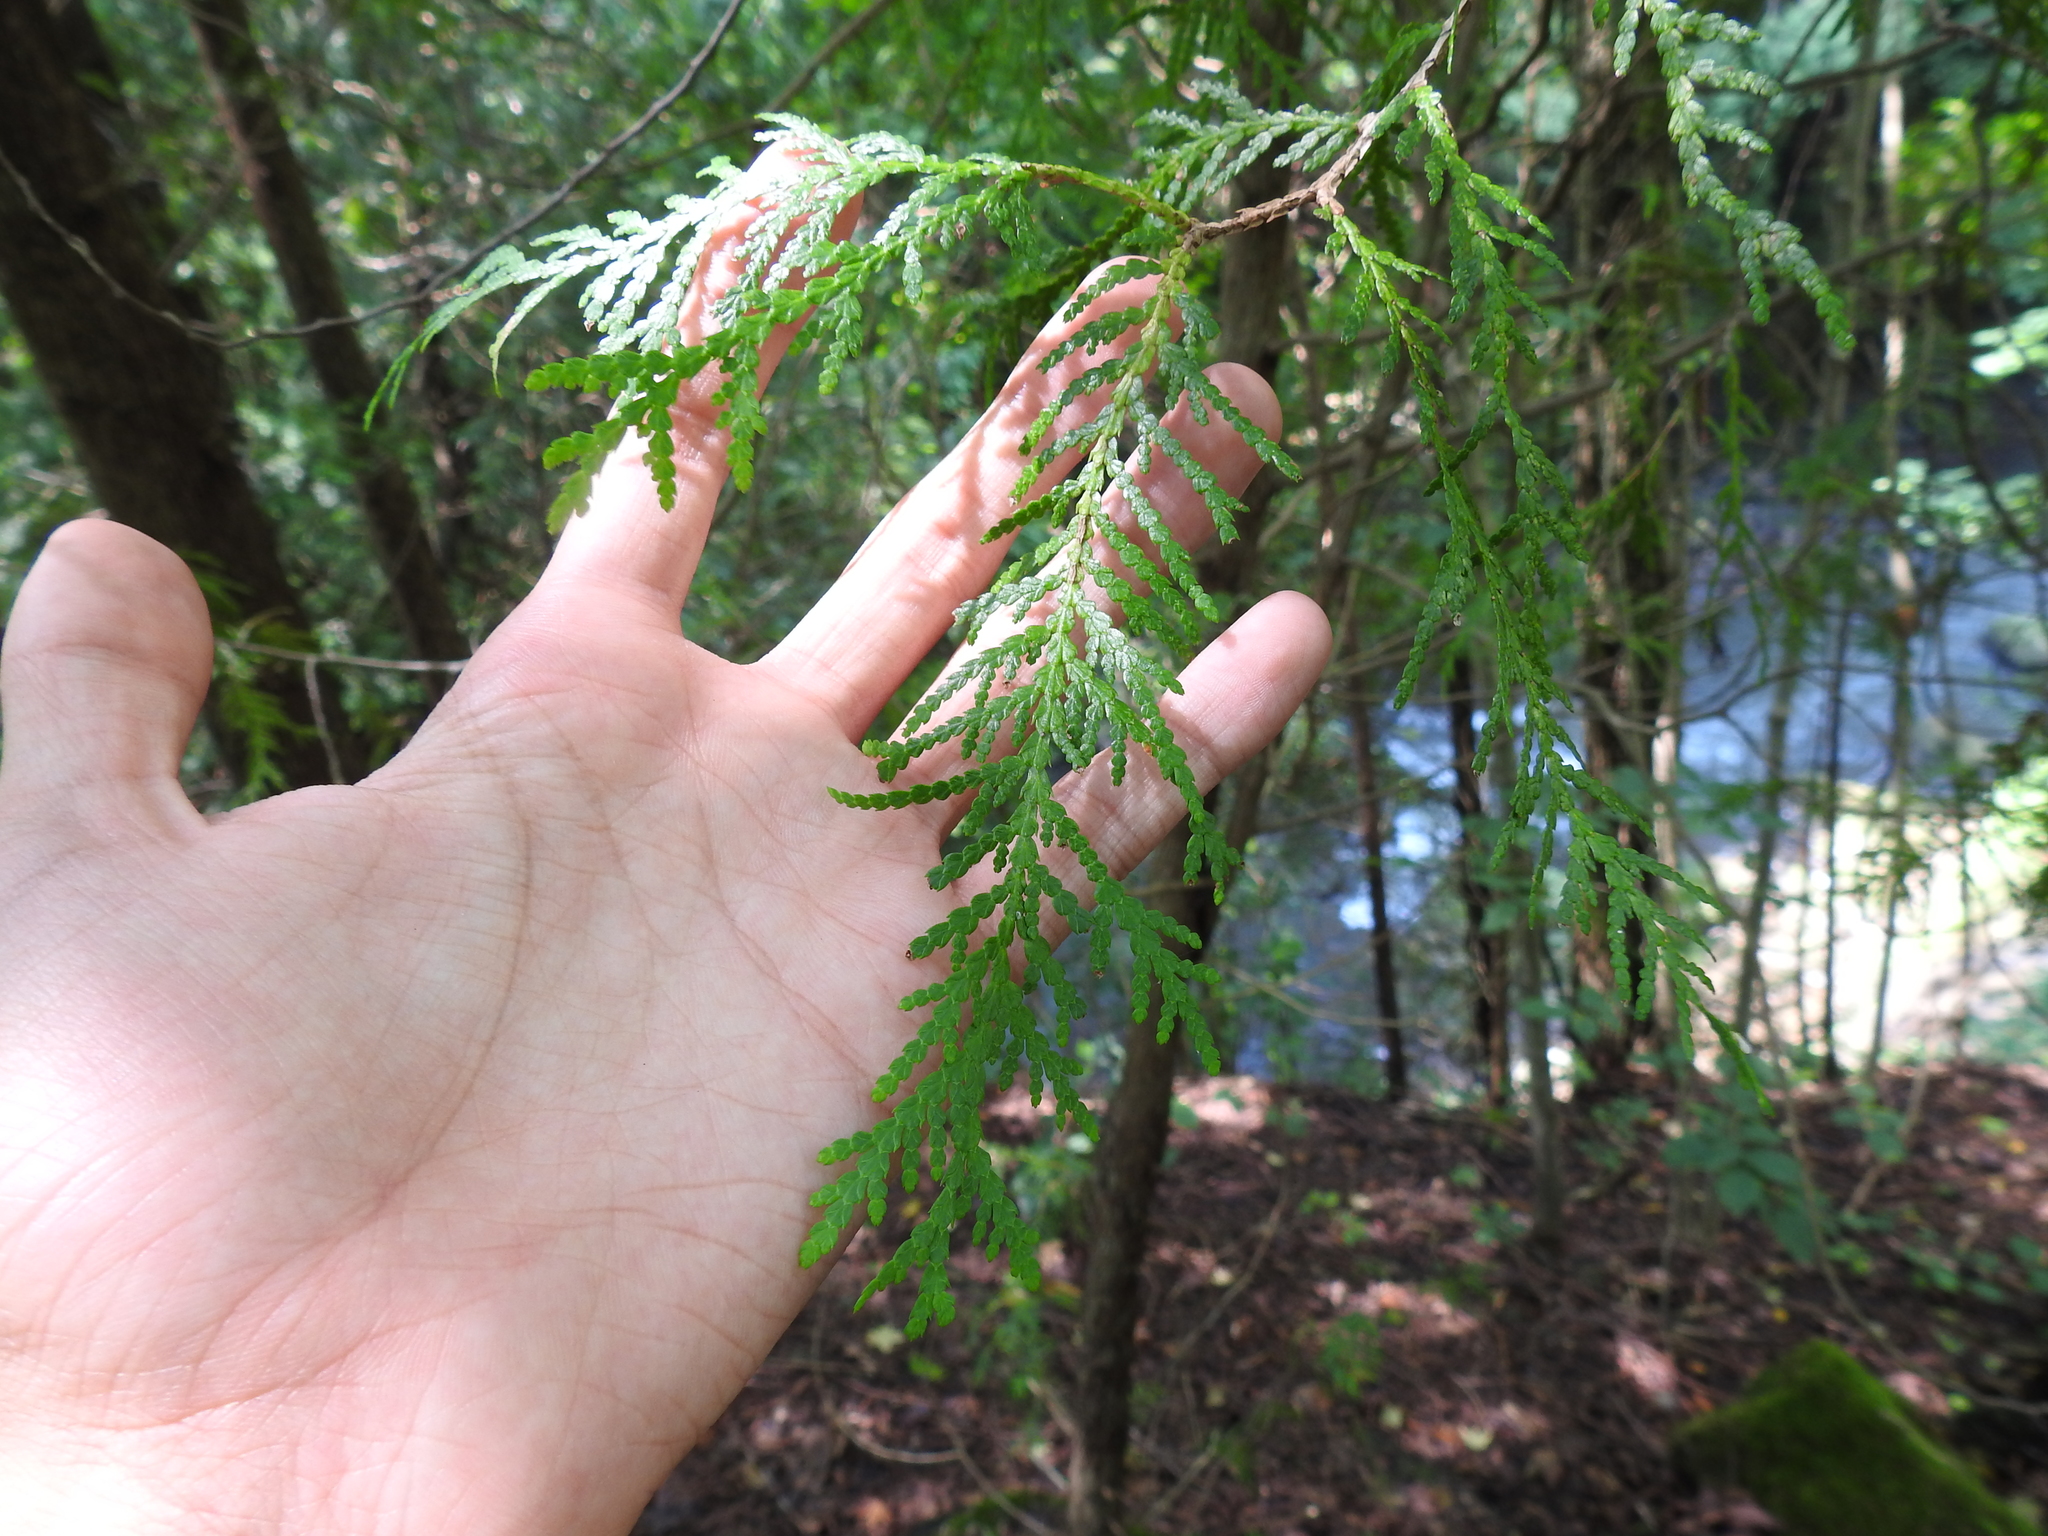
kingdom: Plantae
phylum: Tracheophyta
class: Pinopsida
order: Pinales
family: Cupressaceae
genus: Thuja
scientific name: Thuja occidentalis
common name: Northern white-cedar
